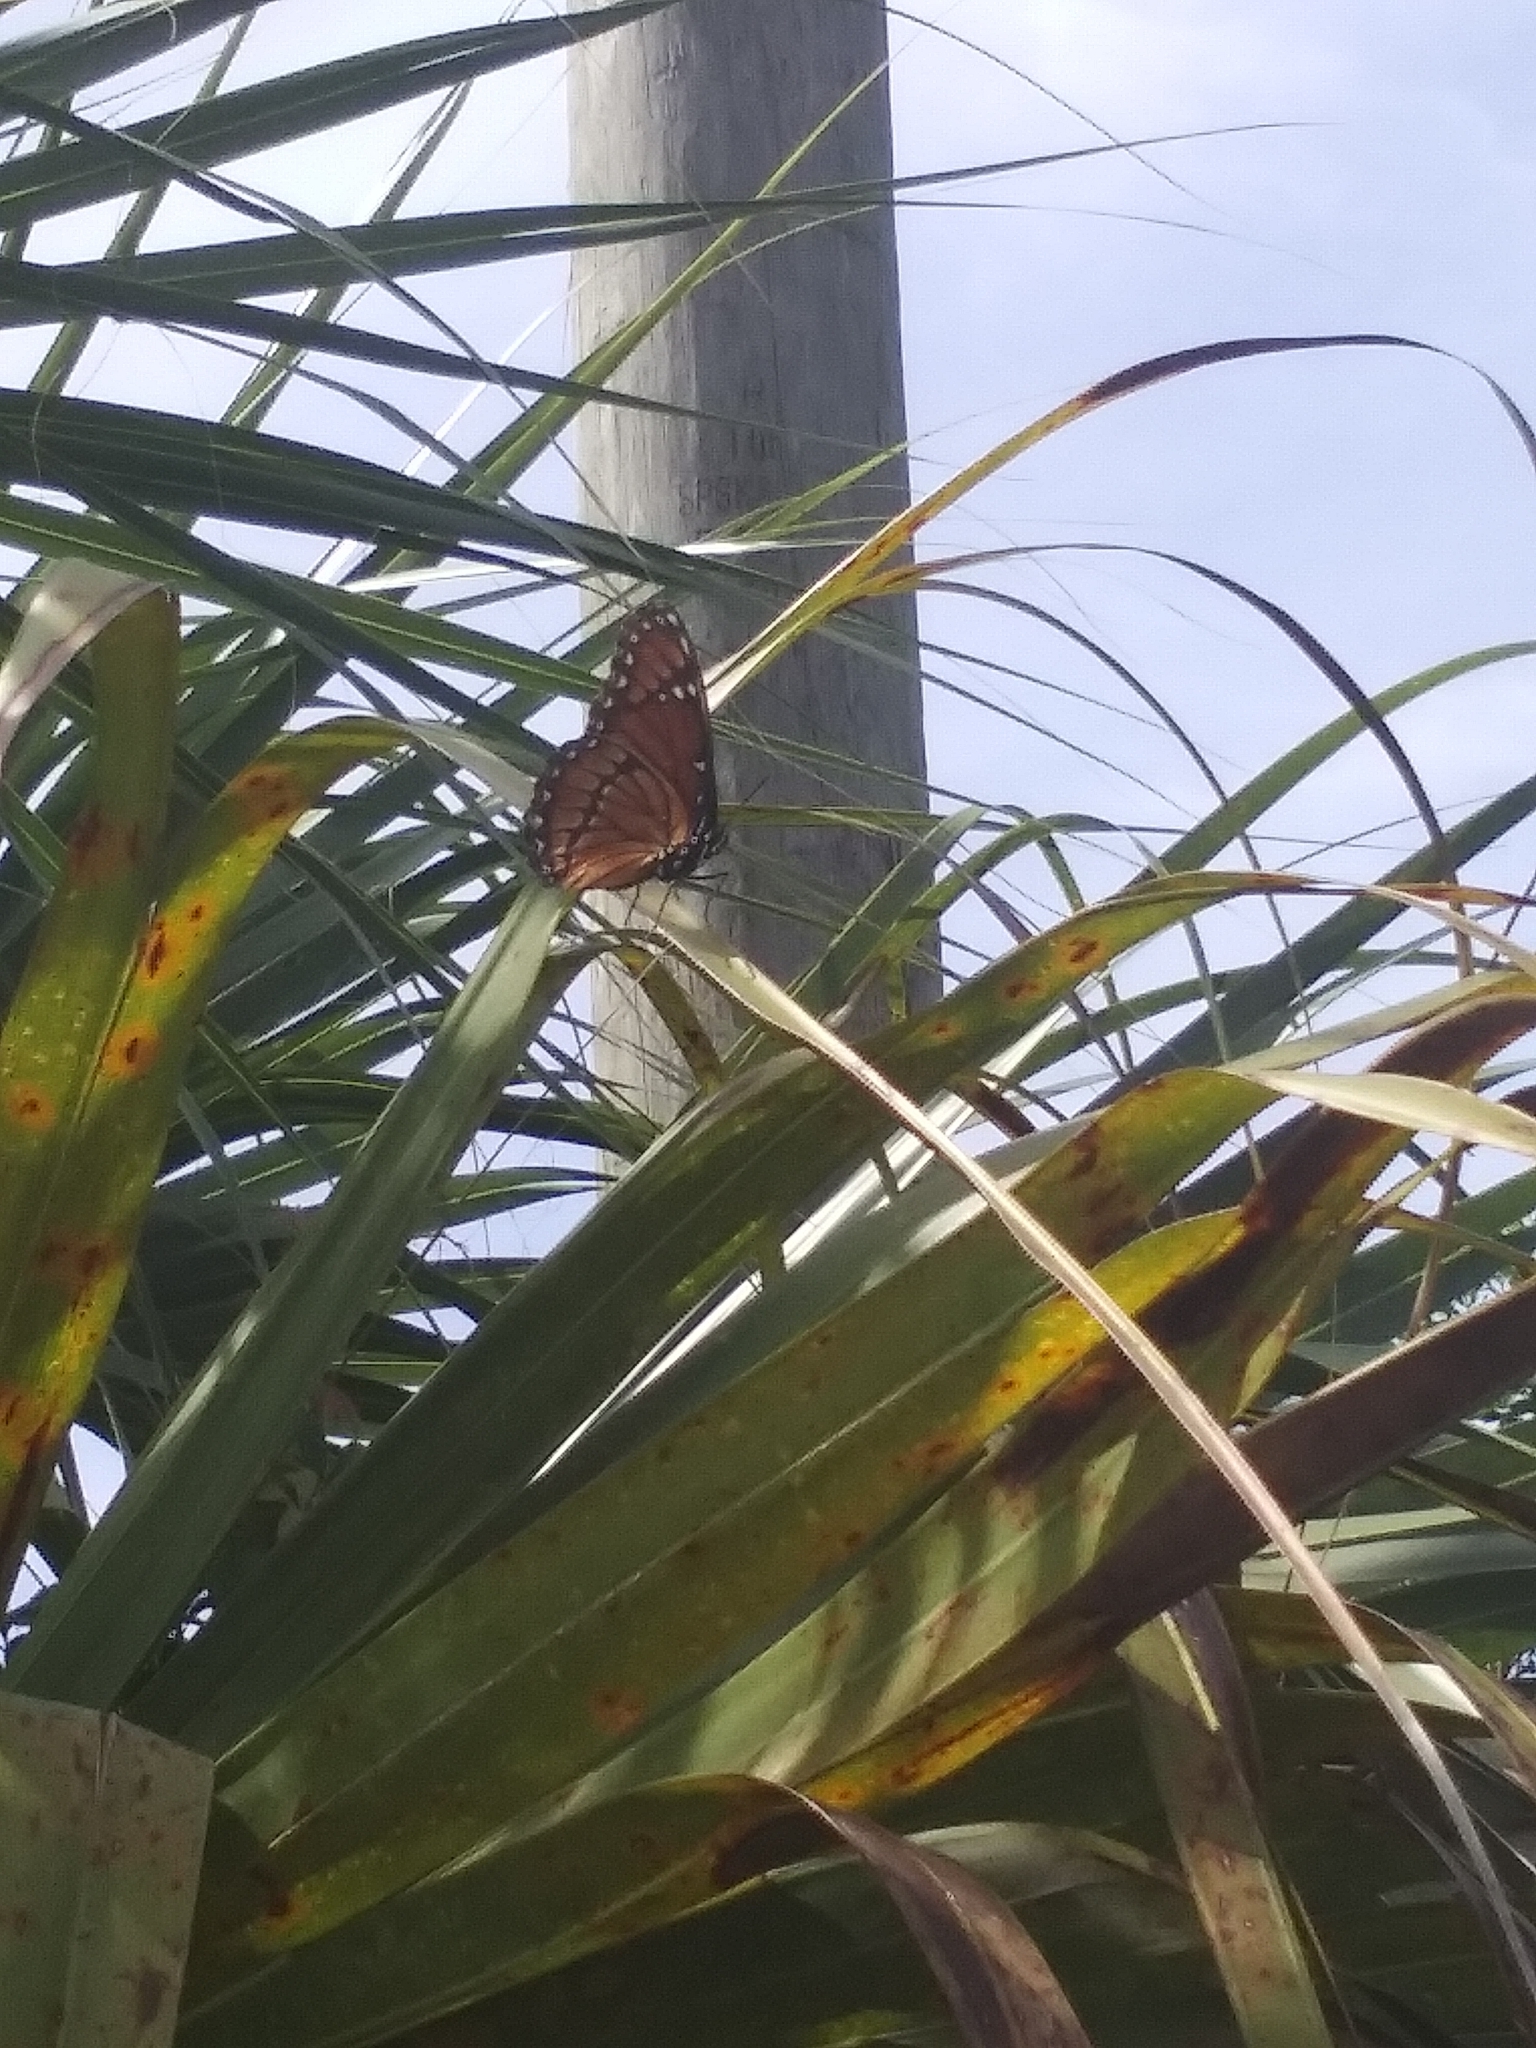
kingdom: Animalia
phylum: Arthropoda
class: Insecta
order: Lepidoptera
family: Nymphalidae
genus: Limenitis
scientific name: Limenitis archippus
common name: Viceroy
